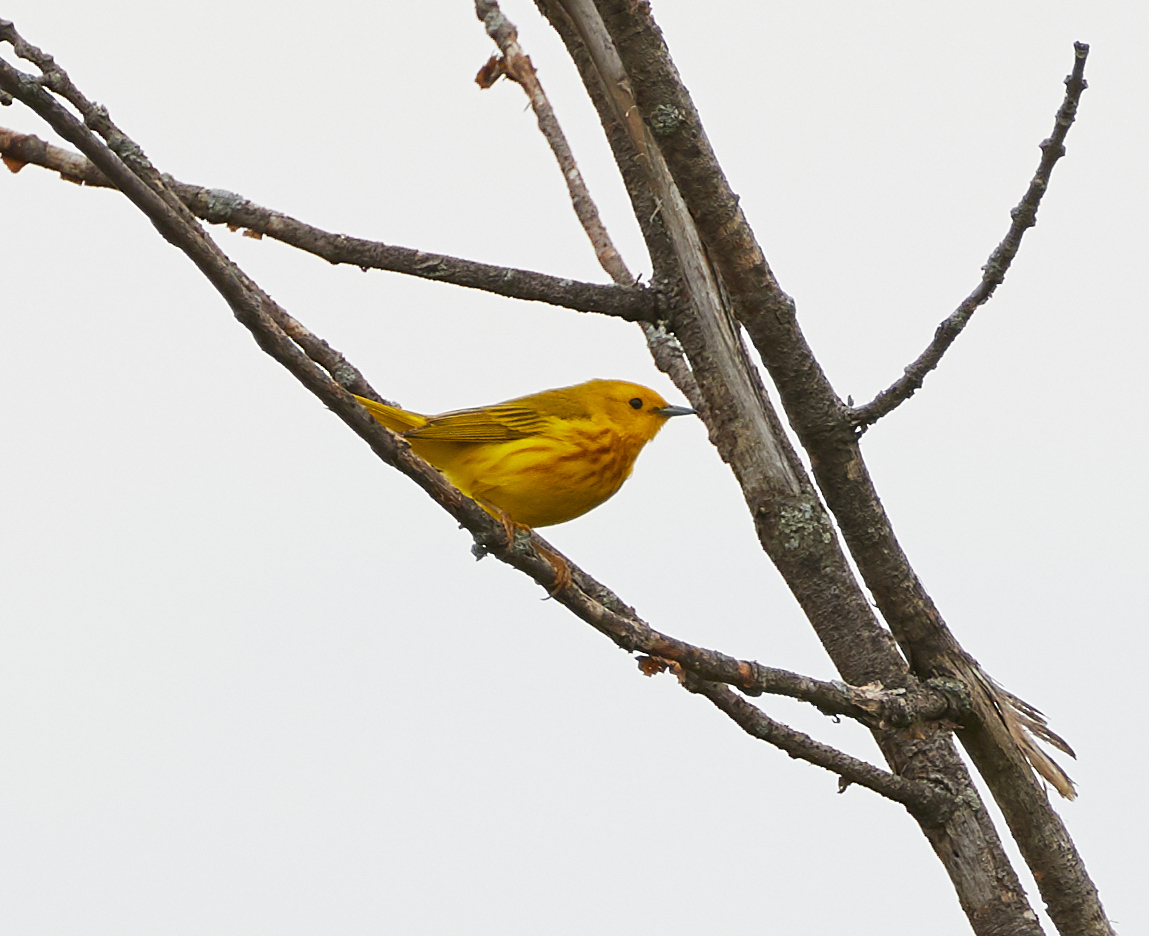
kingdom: Animalia
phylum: Chordata
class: Aves
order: Passeriformes
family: Parulidae
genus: Setophaga
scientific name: Setophaga petechia
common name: Yellow warbler
